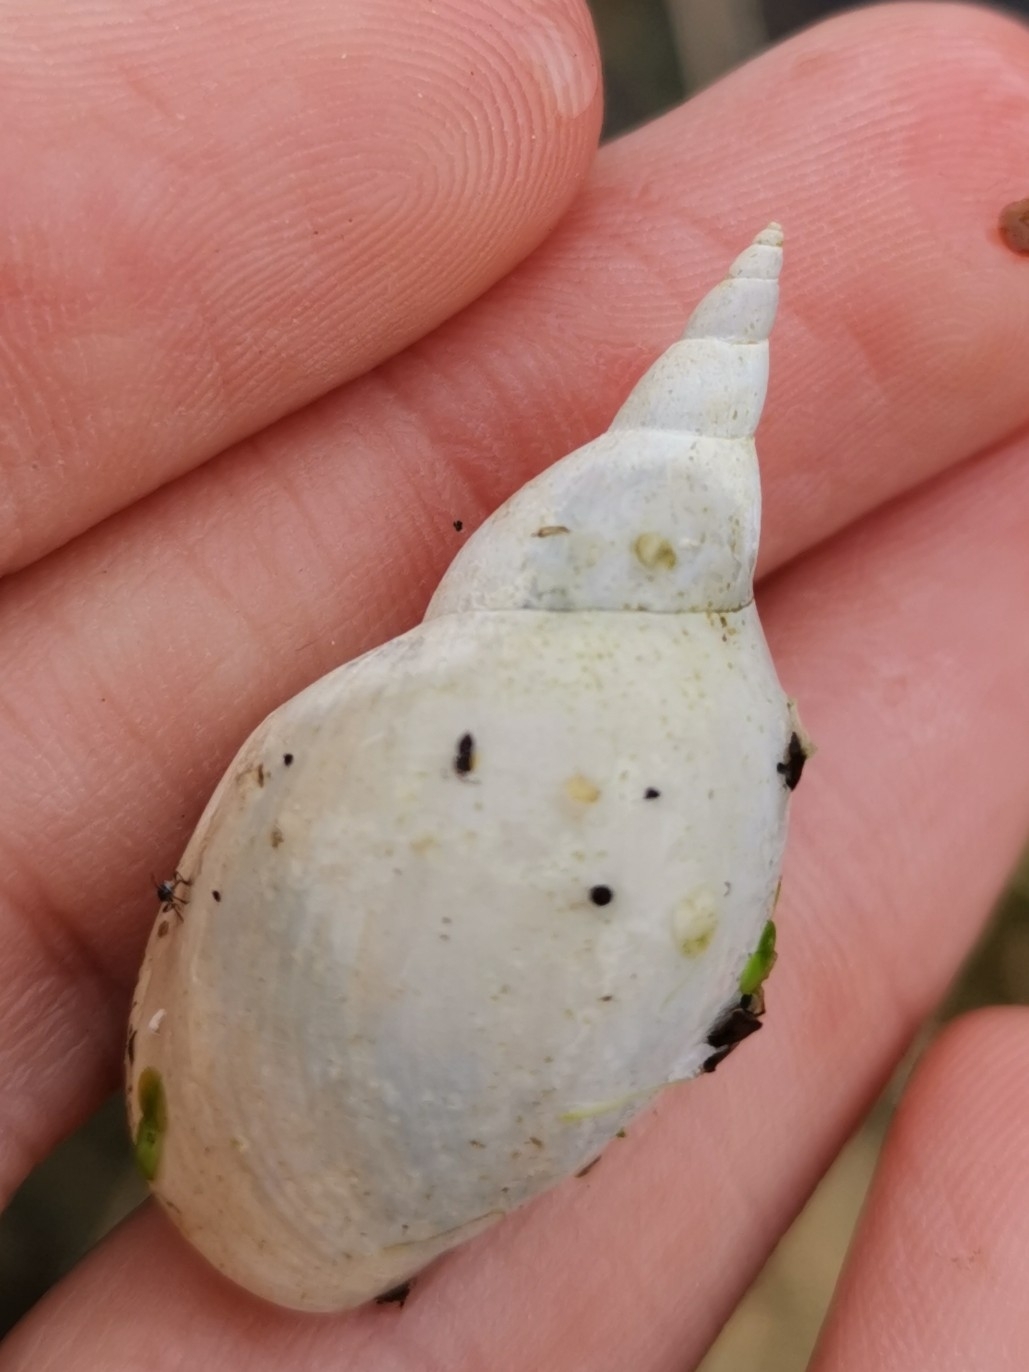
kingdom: Animalia
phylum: Mollusca
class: Gastropoda
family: Lymnaeidae
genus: Lymnaea
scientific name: Lymnaea stagnalis
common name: Great pond snail
